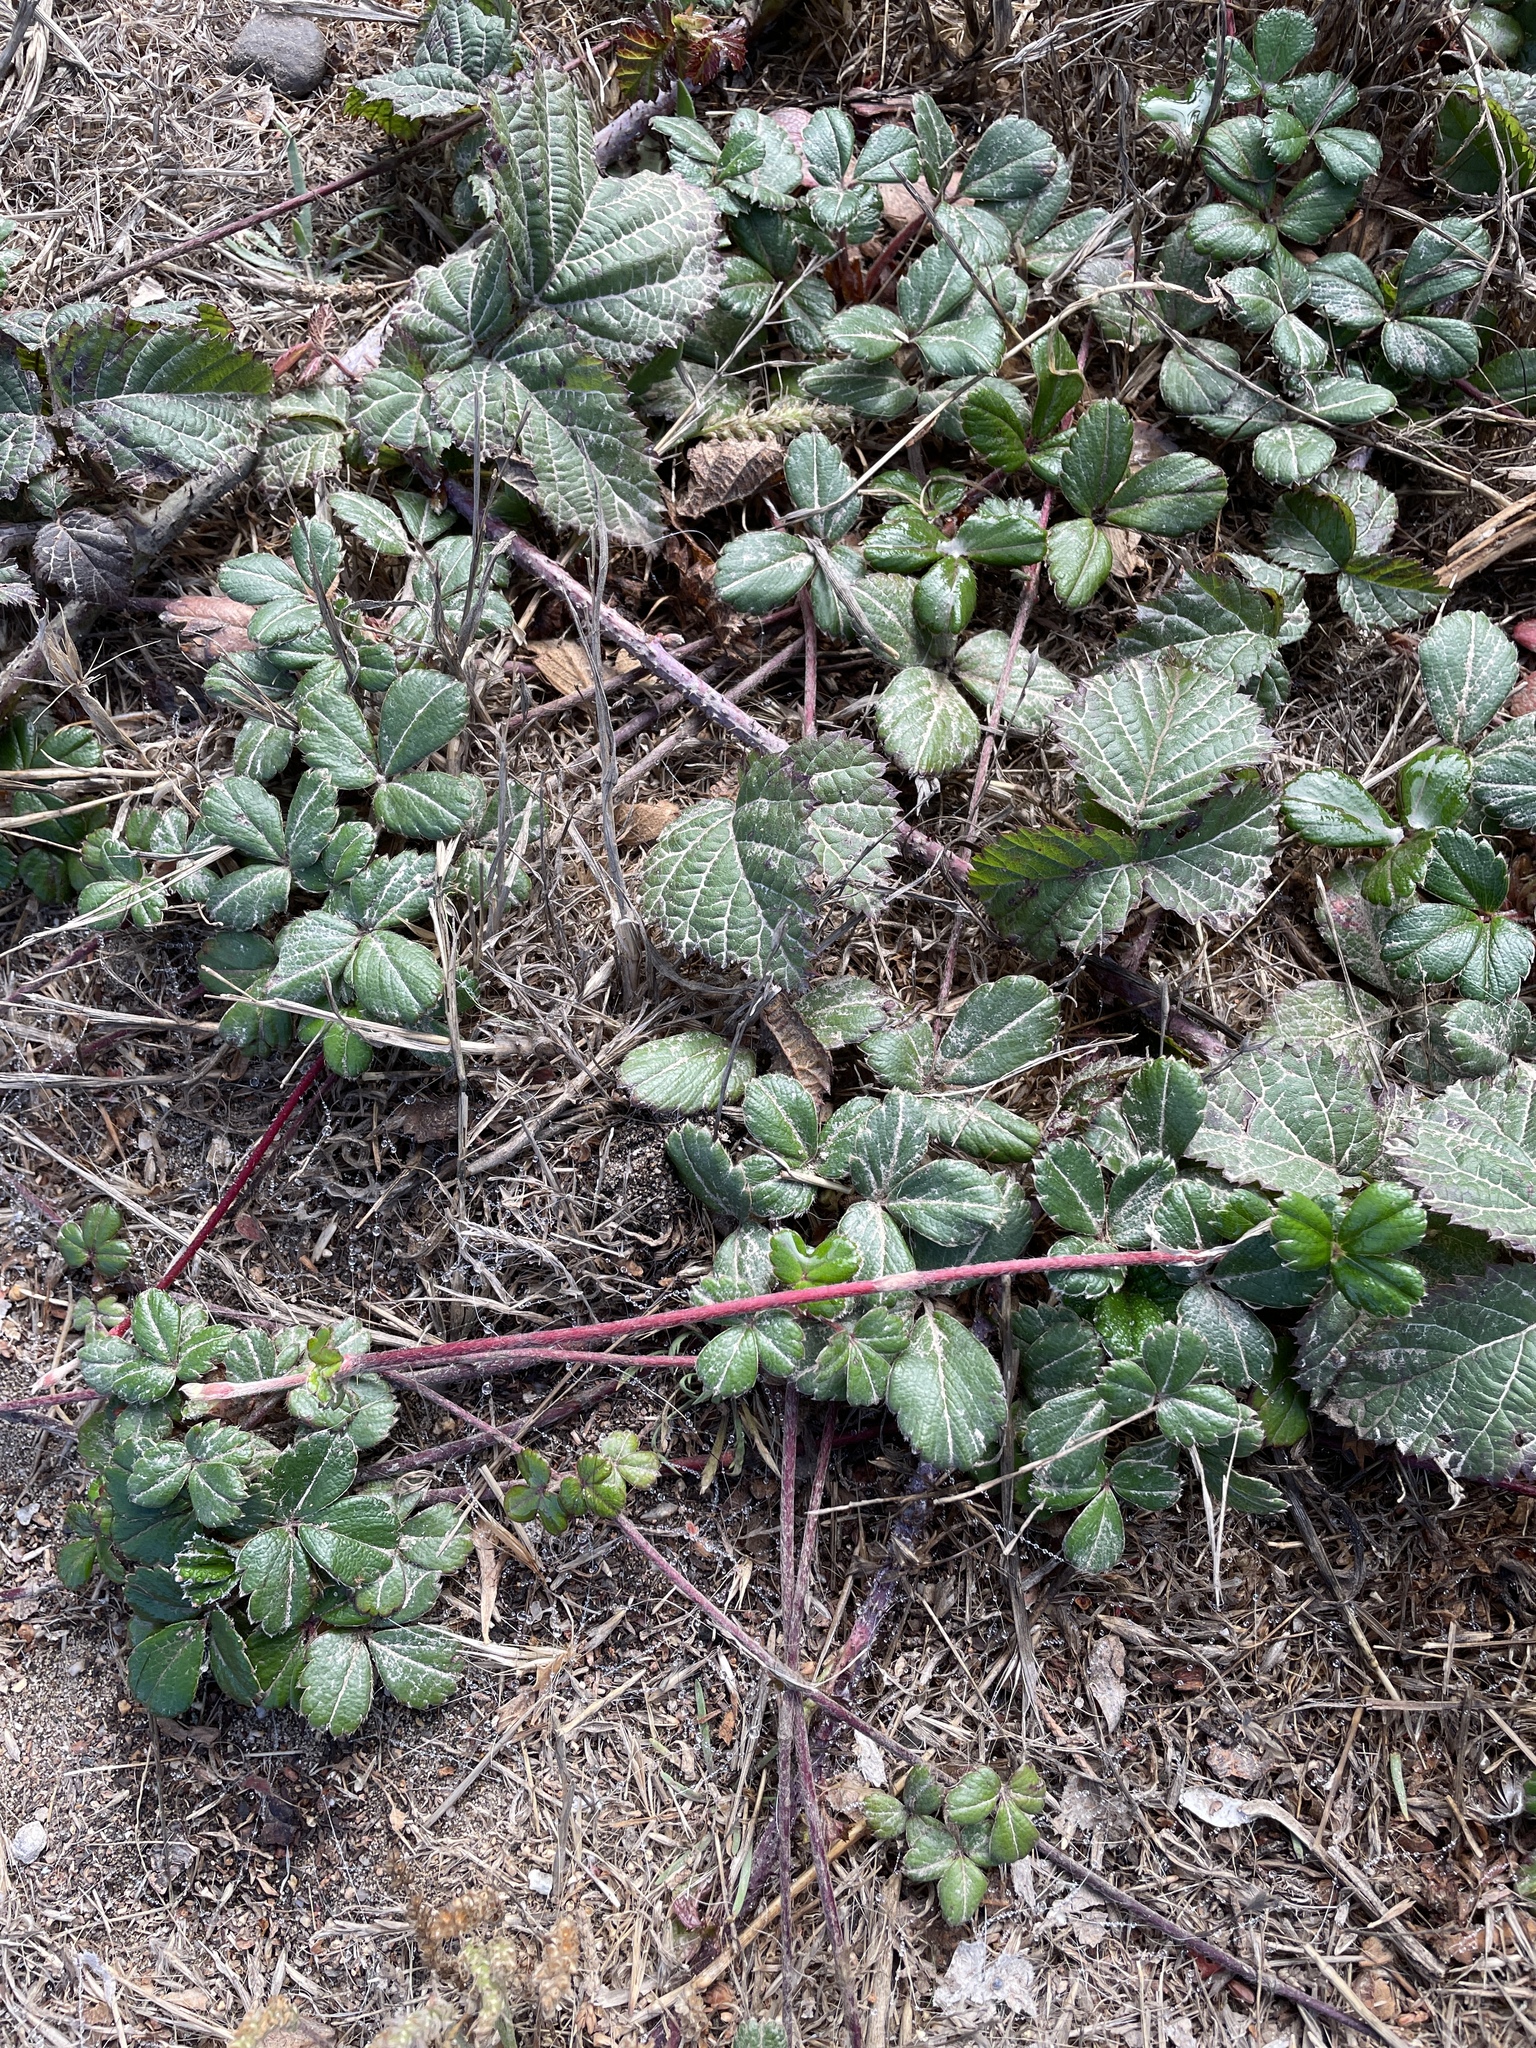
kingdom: Plantae
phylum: Tracheophyta
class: Magnoliopsida
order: Rosales
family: Rosaceae
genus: Fragaria
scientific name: Fragaria chiloensis
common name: Beach strawberry
